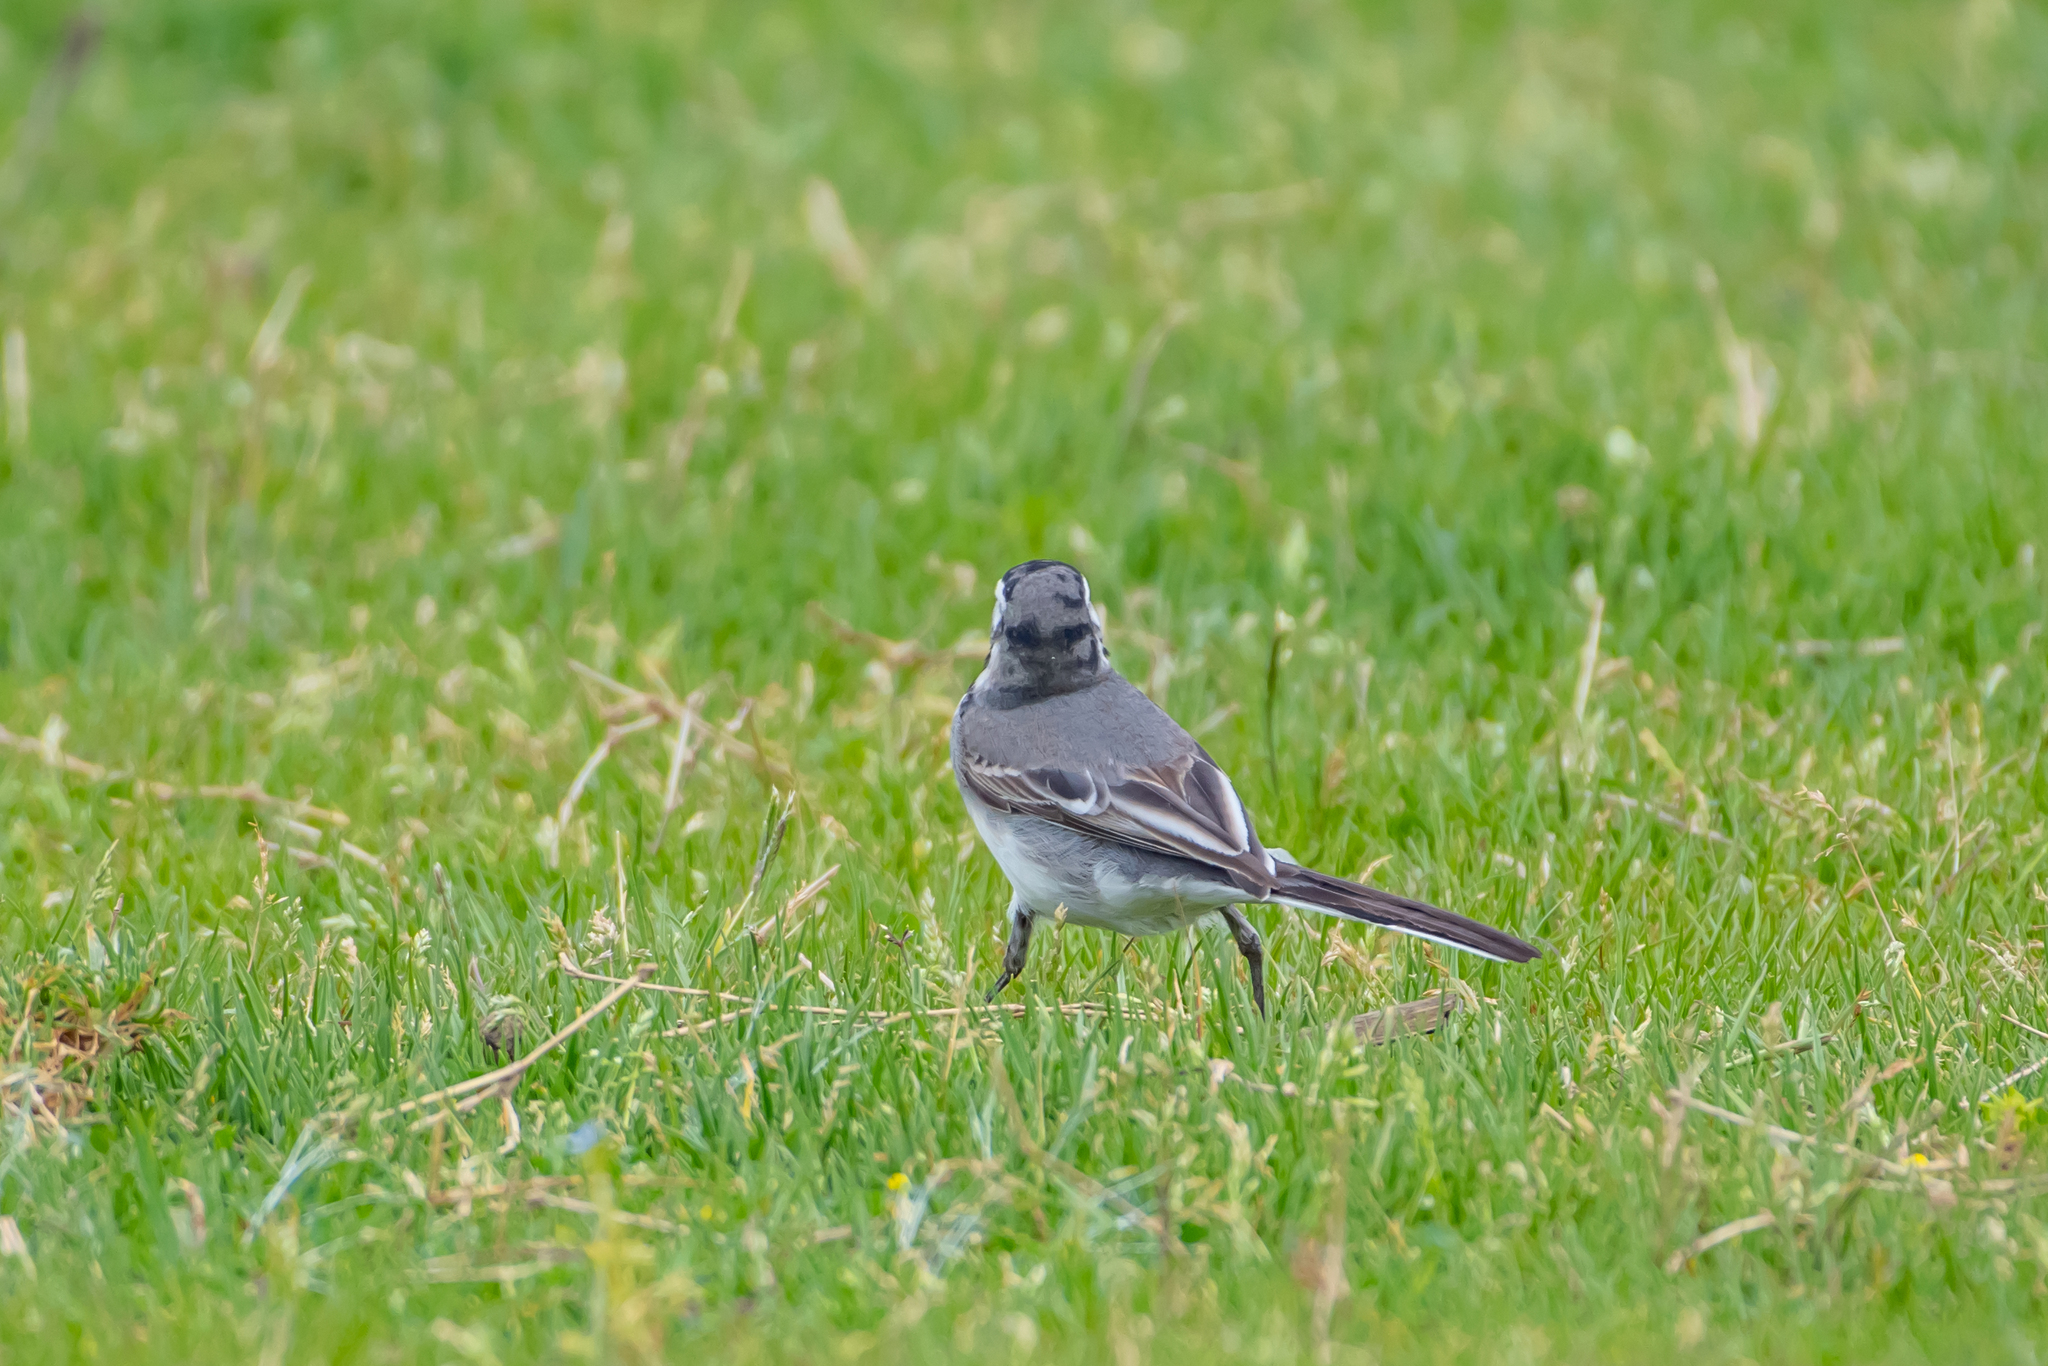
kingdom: Animalia
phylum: Chordata
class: Aves
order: Passeriformes
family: Motacillidae
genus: Motacilla
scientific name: Motacilla alba
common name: White wagtail
